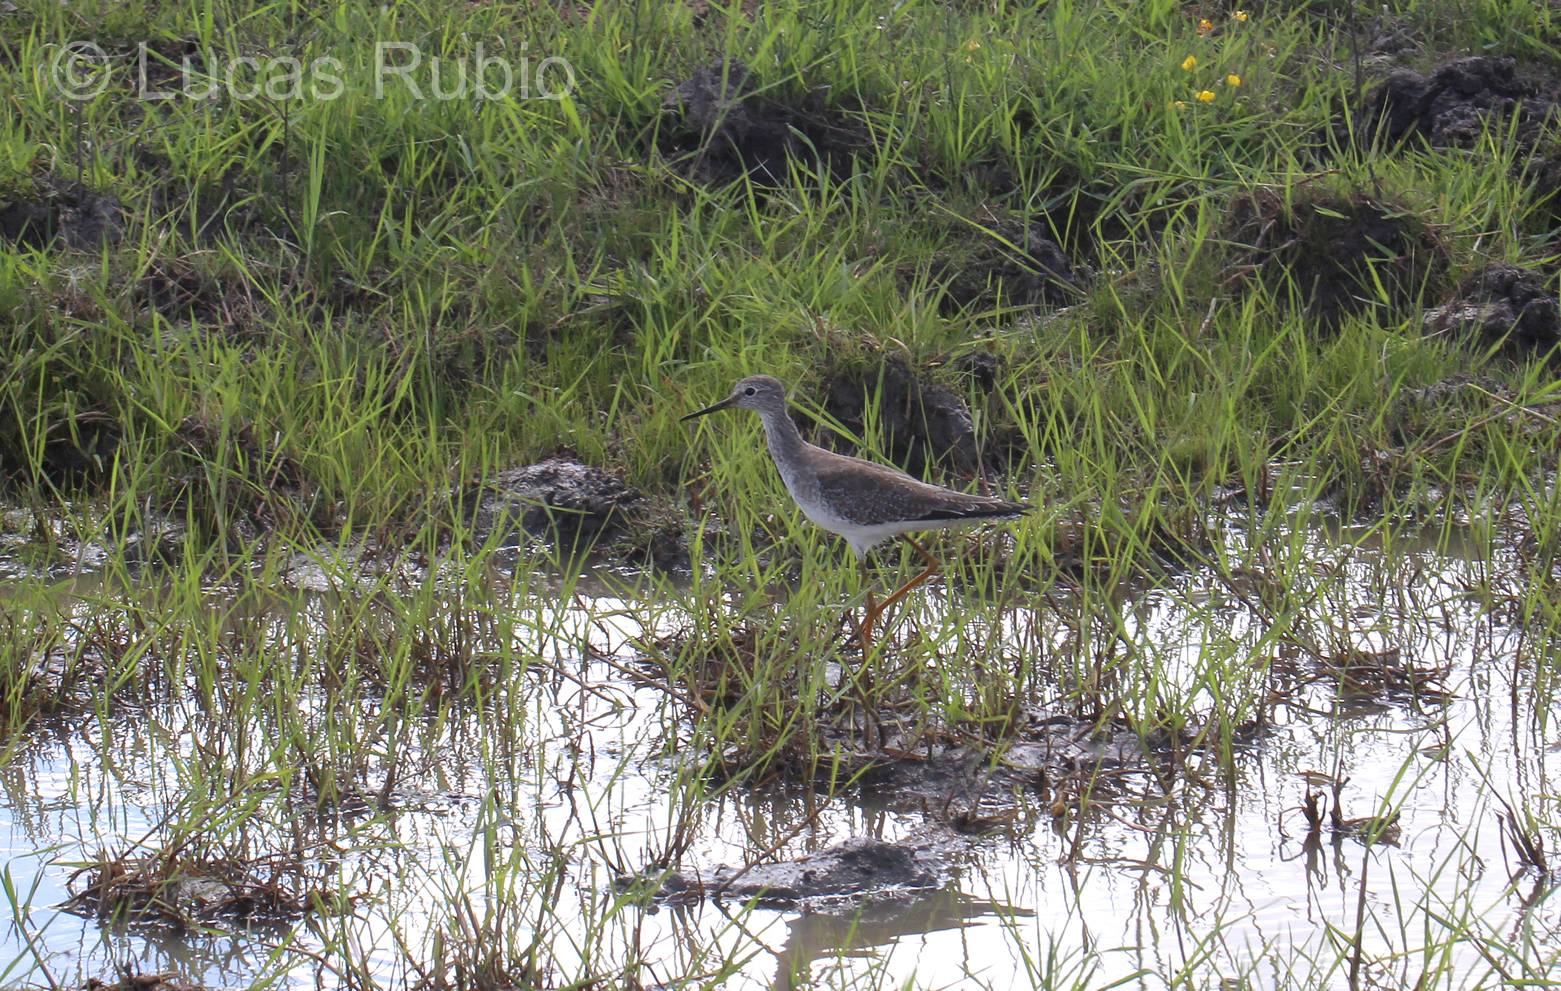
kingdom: Animalia
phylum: Chordata
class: Aves
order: Charadriiformes
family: Scolopacidae
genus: Tringa
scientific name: Tringa flavipes
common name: Lesser yellowlegs
